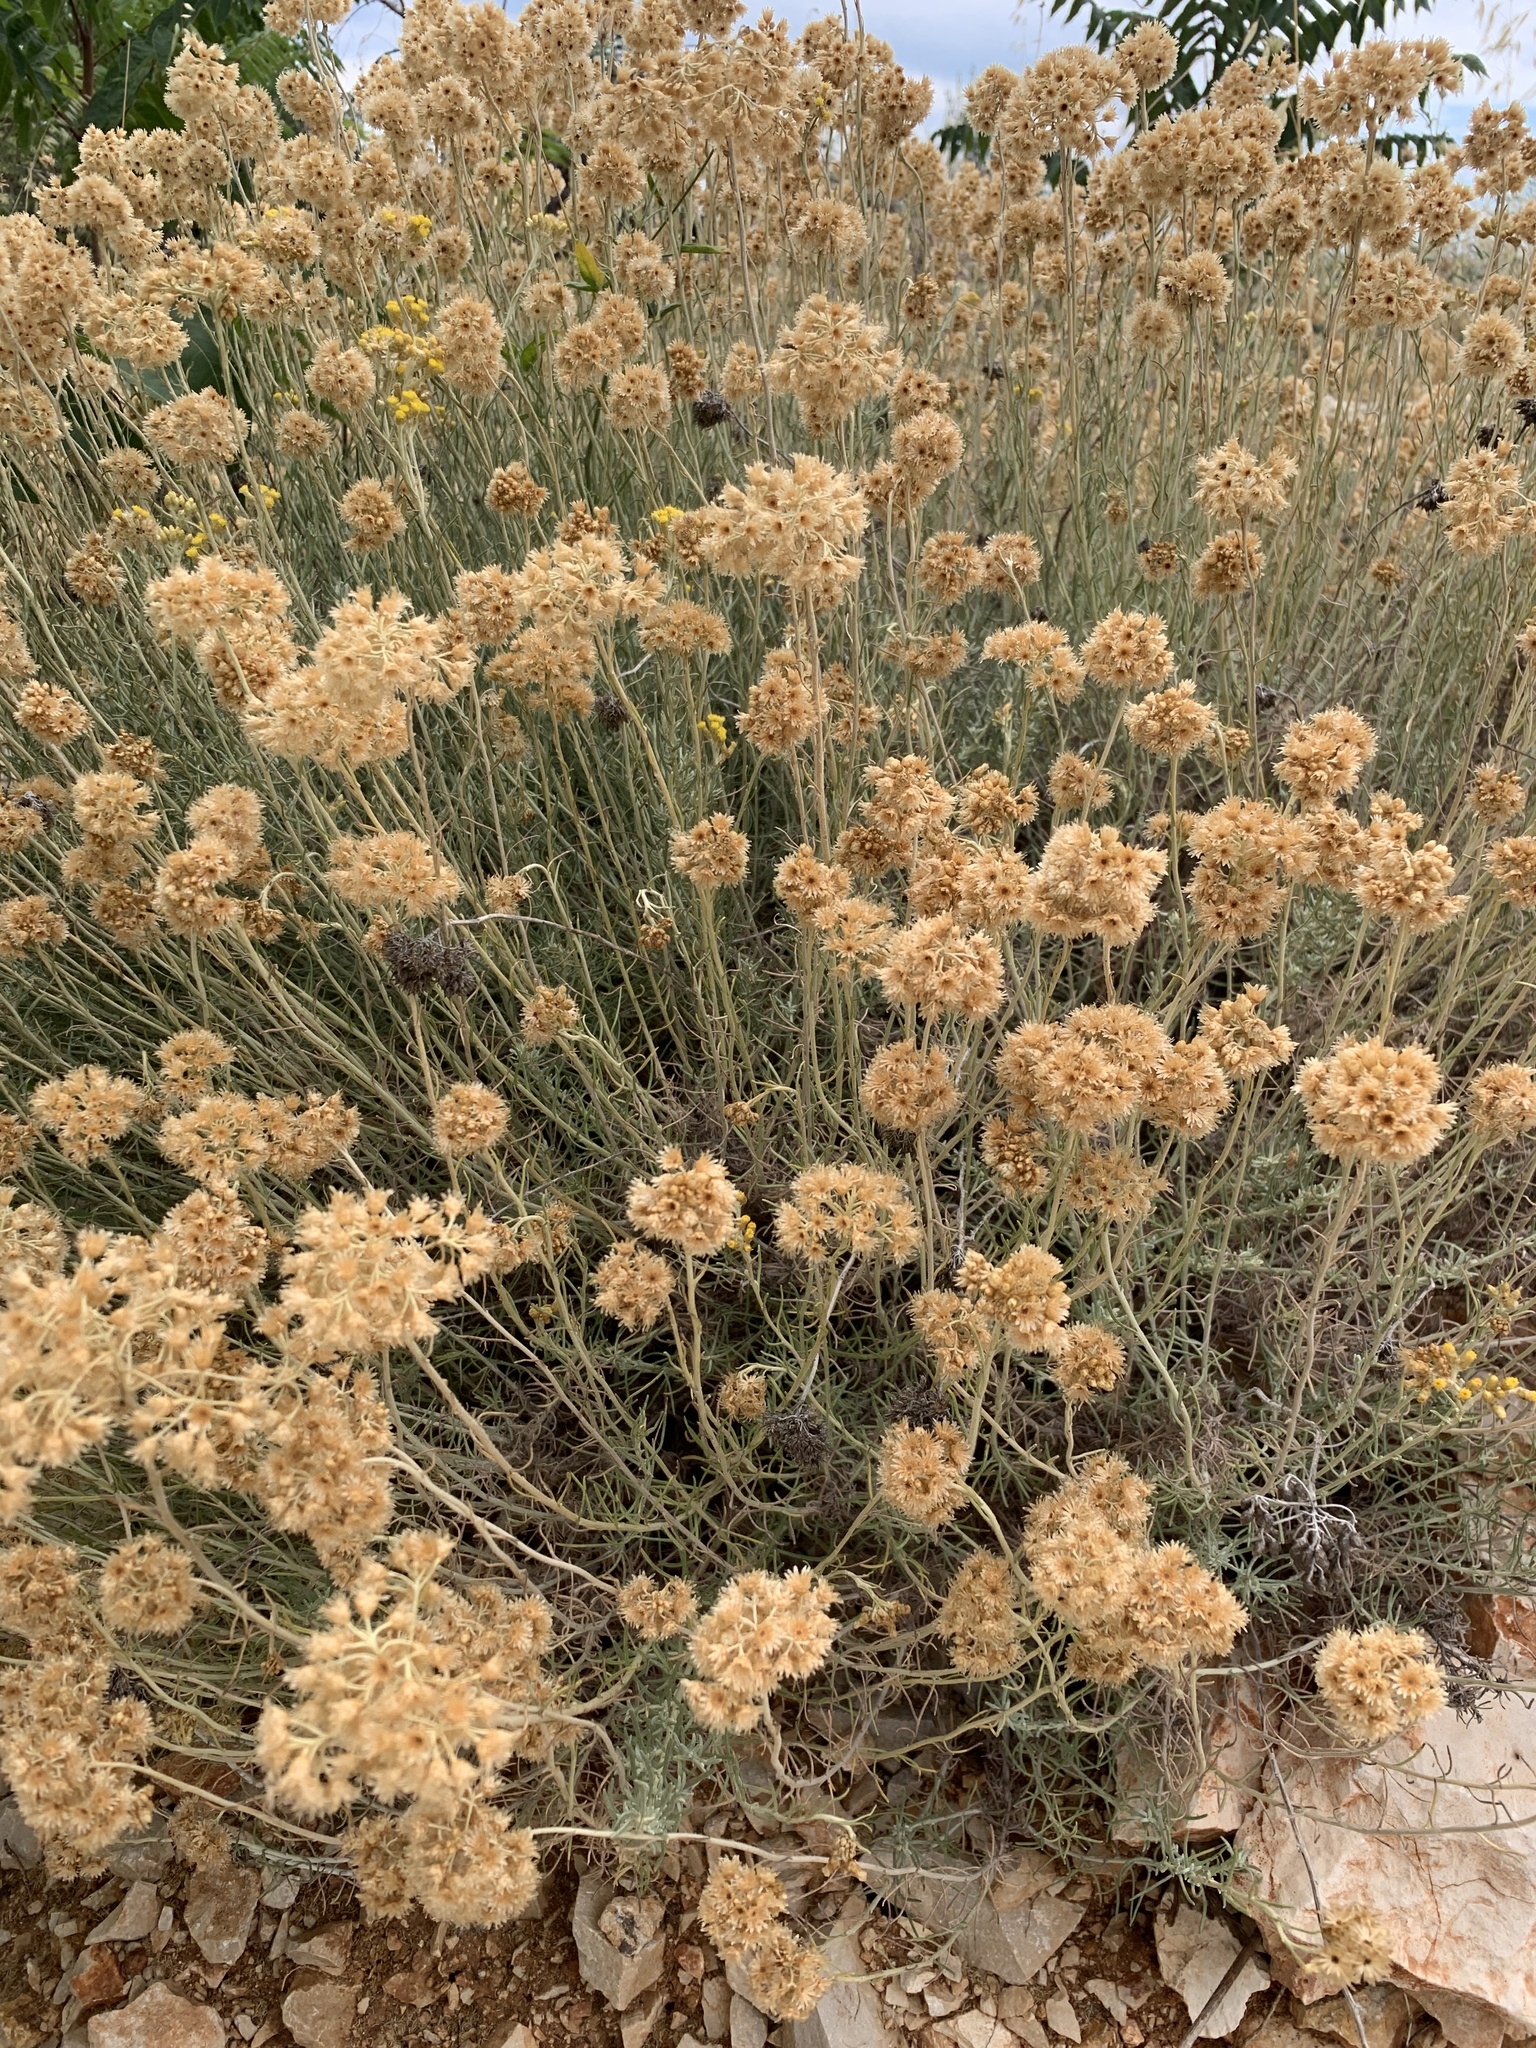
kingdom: Plantae
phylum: Tracheophyta
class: Magnoliopsida
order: Asterales
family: Asteraceae
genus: Helichrysum
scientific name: Helichrysum italicum
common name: Curryplant
